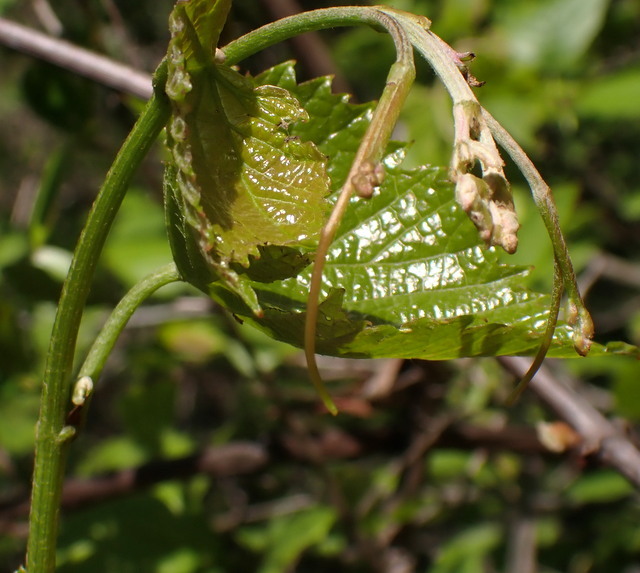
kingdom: Plantae
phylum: Tracheophyta
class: Magnoliopsida
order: Vitales
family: Vitaceae
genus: Vitis
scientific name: Vitis rotundifolia
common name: Muscadine grape
